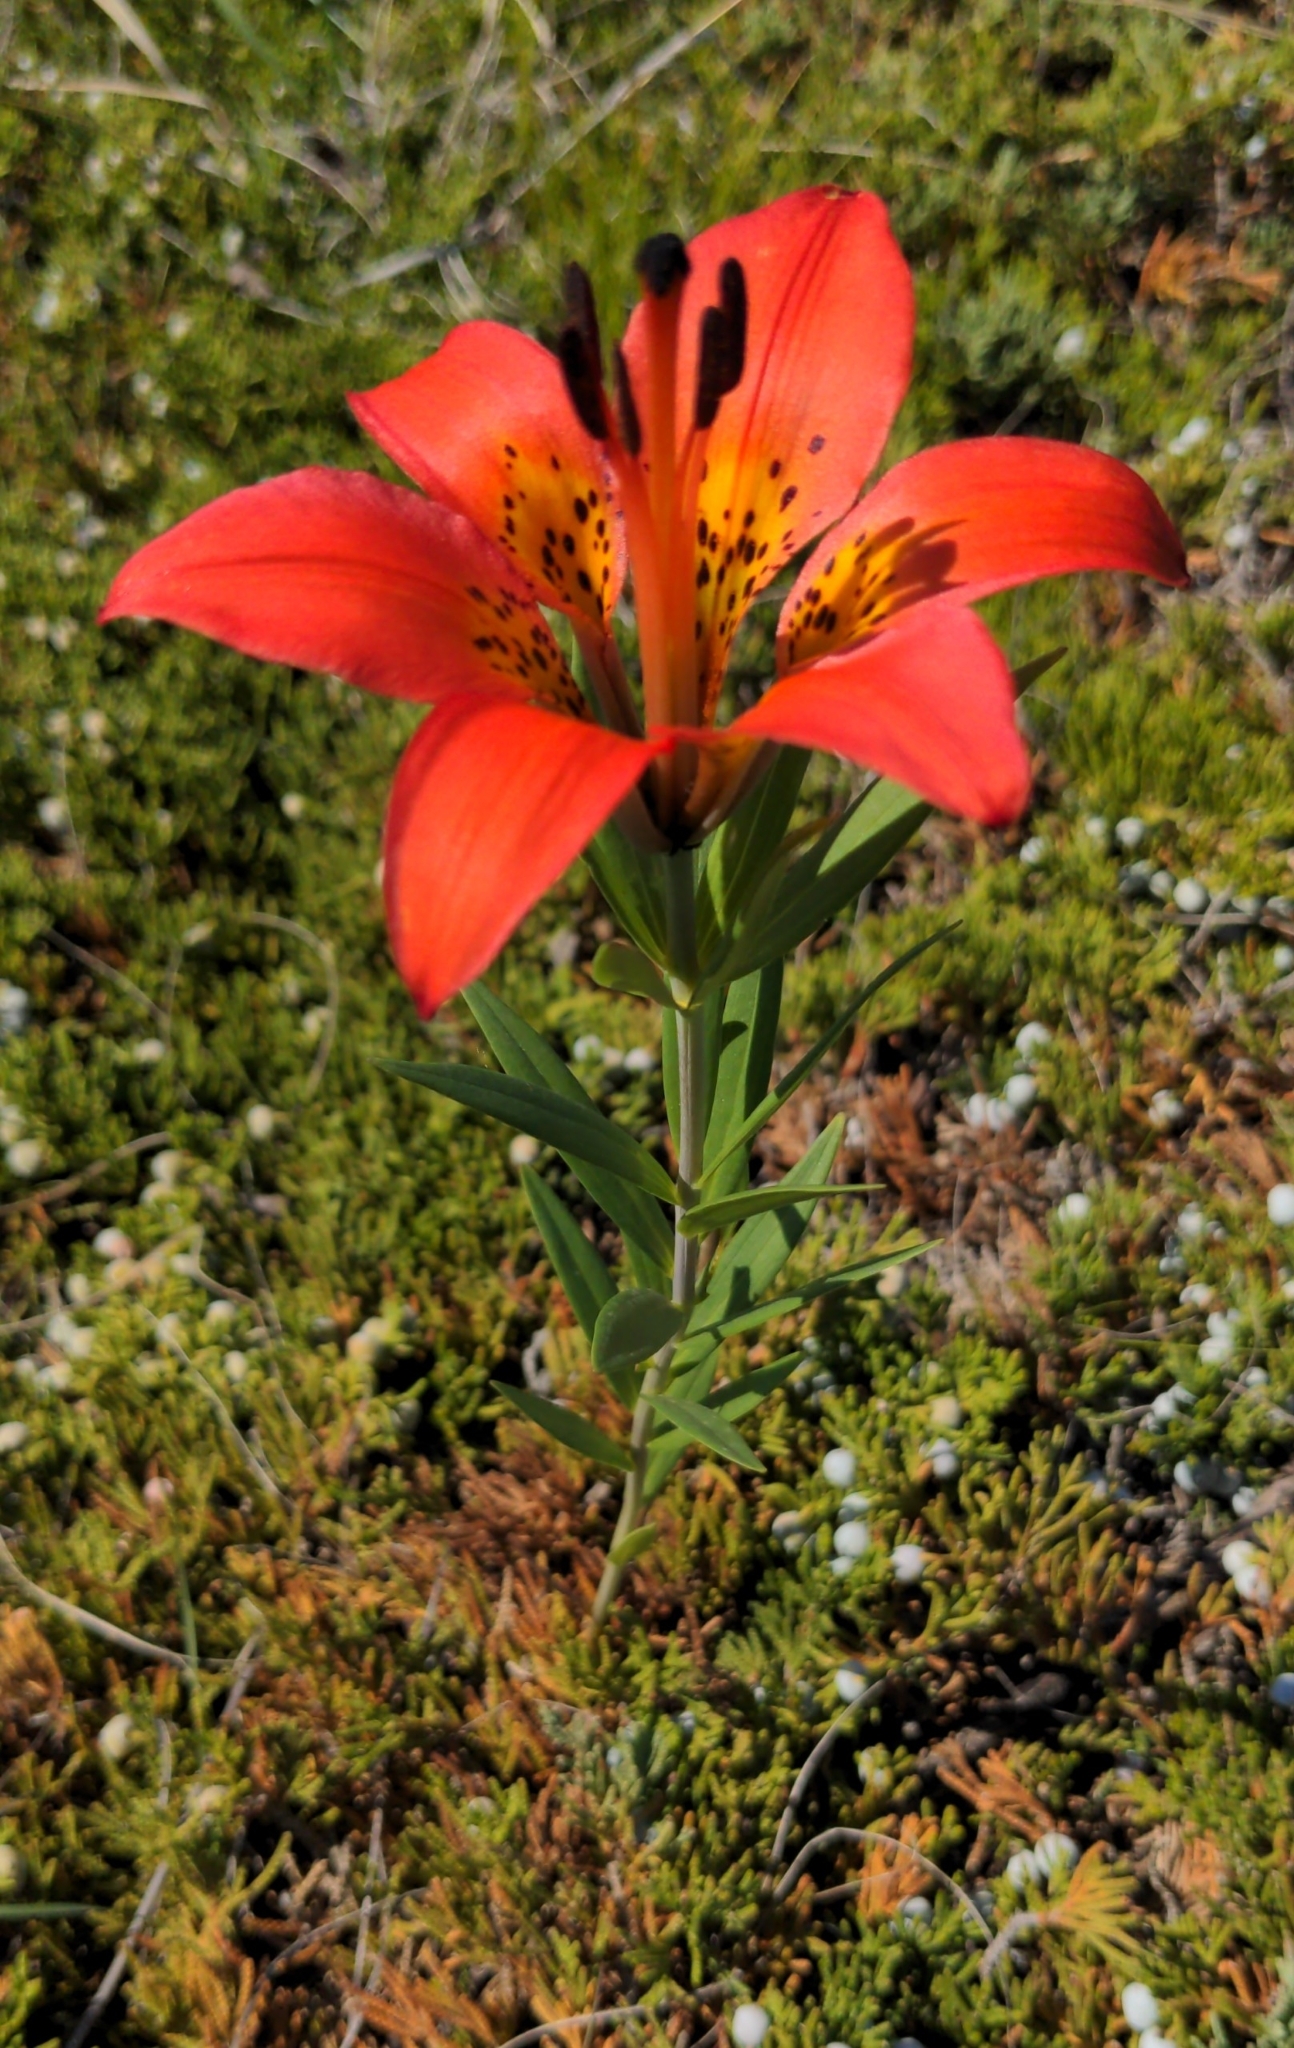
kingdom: Plantae
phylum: Tracheophyta
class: Liliopsida
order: Liliales
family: Liliaceae
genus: Lilium
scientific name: Lilium philadelphicum
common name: Red lily
